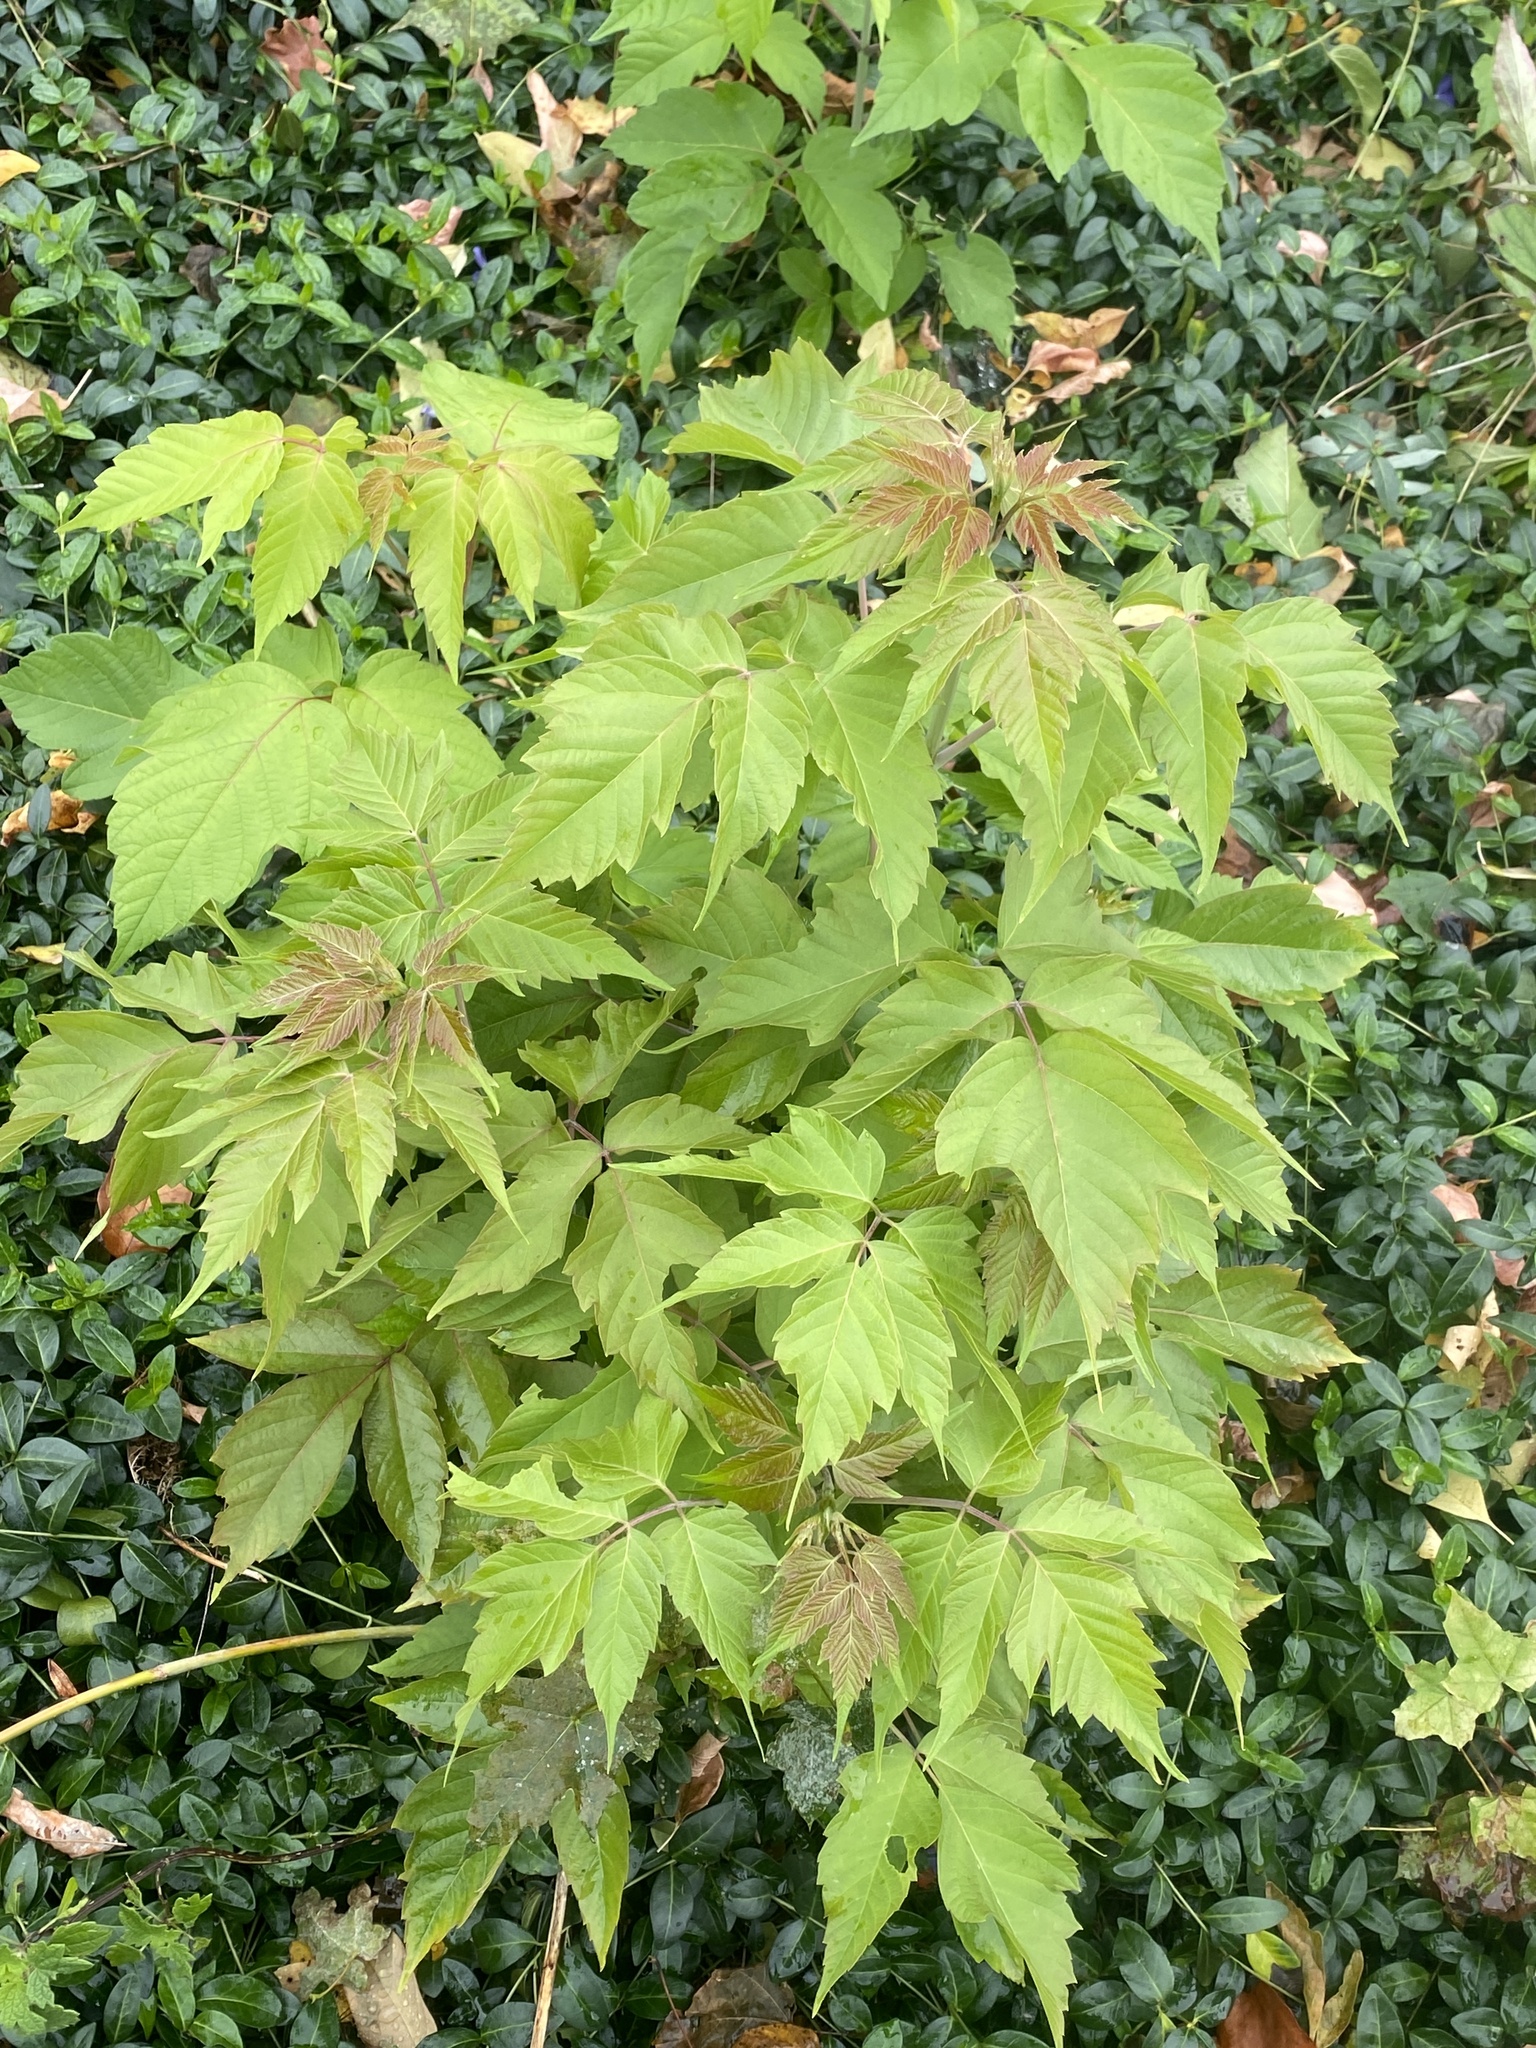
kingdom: Plantae
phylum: Tracheophyta
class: Magnoliopsida
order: Sapindales
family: Sapindaceae
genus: Acer
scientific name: Acer negundo
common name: Ashleaf maple
